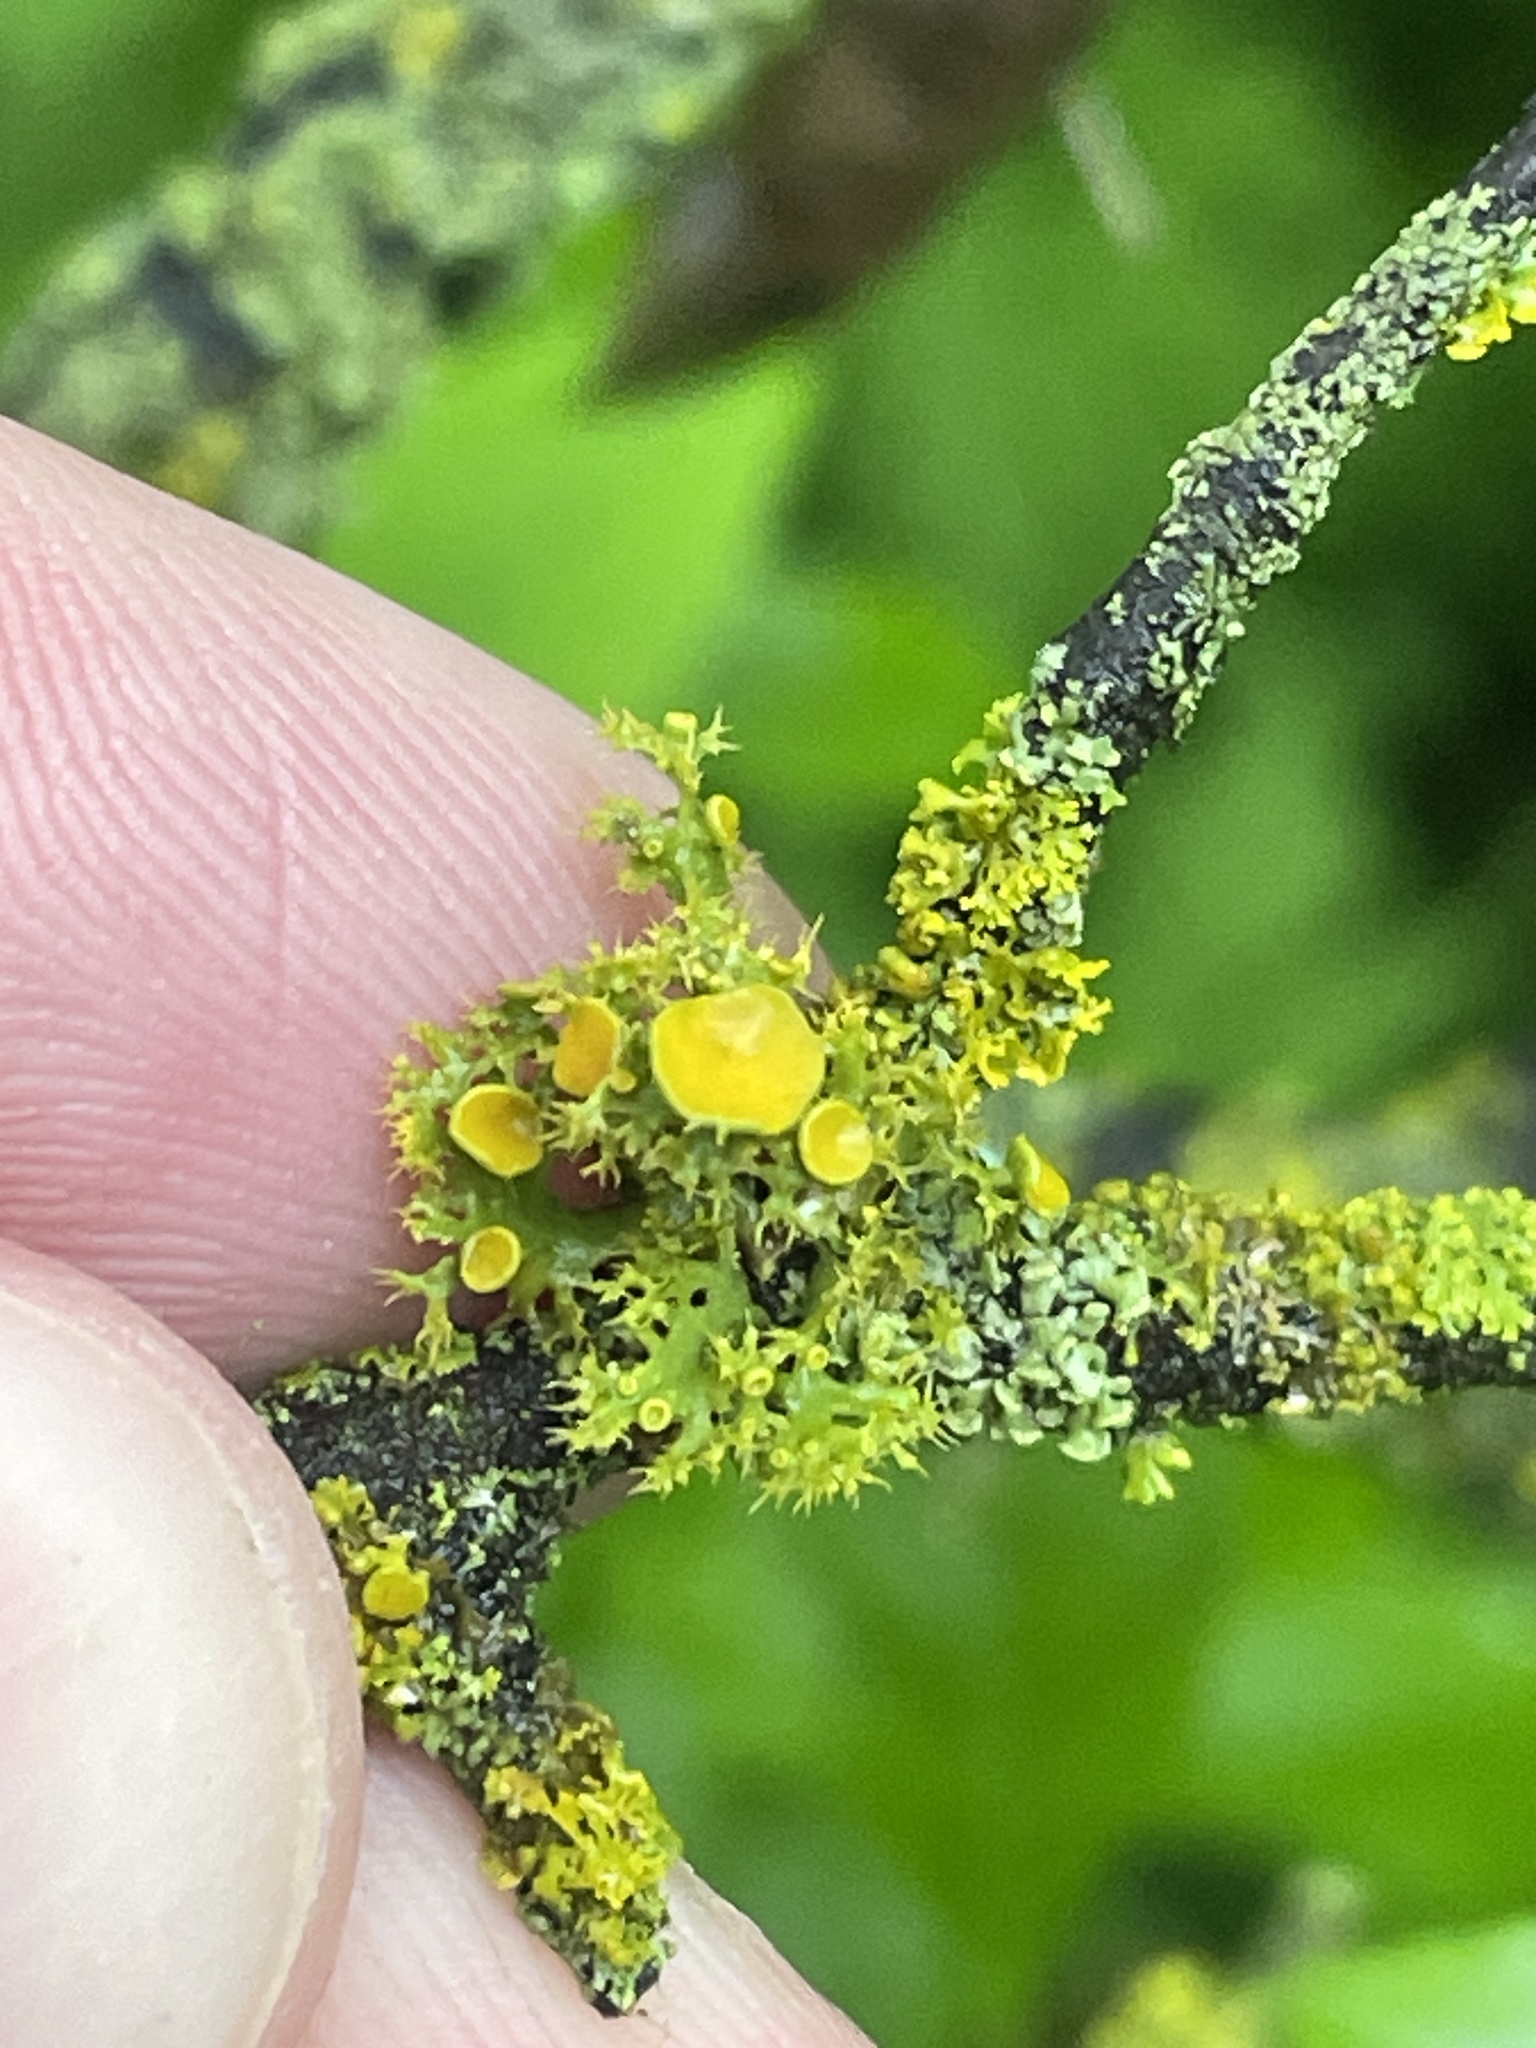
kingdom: Fungi
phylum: Ascomycota
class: Lecanoromycetes
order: Teloschistales
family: Teloschistaceae
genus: Niorma
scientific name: Niorma chrysophthalma
